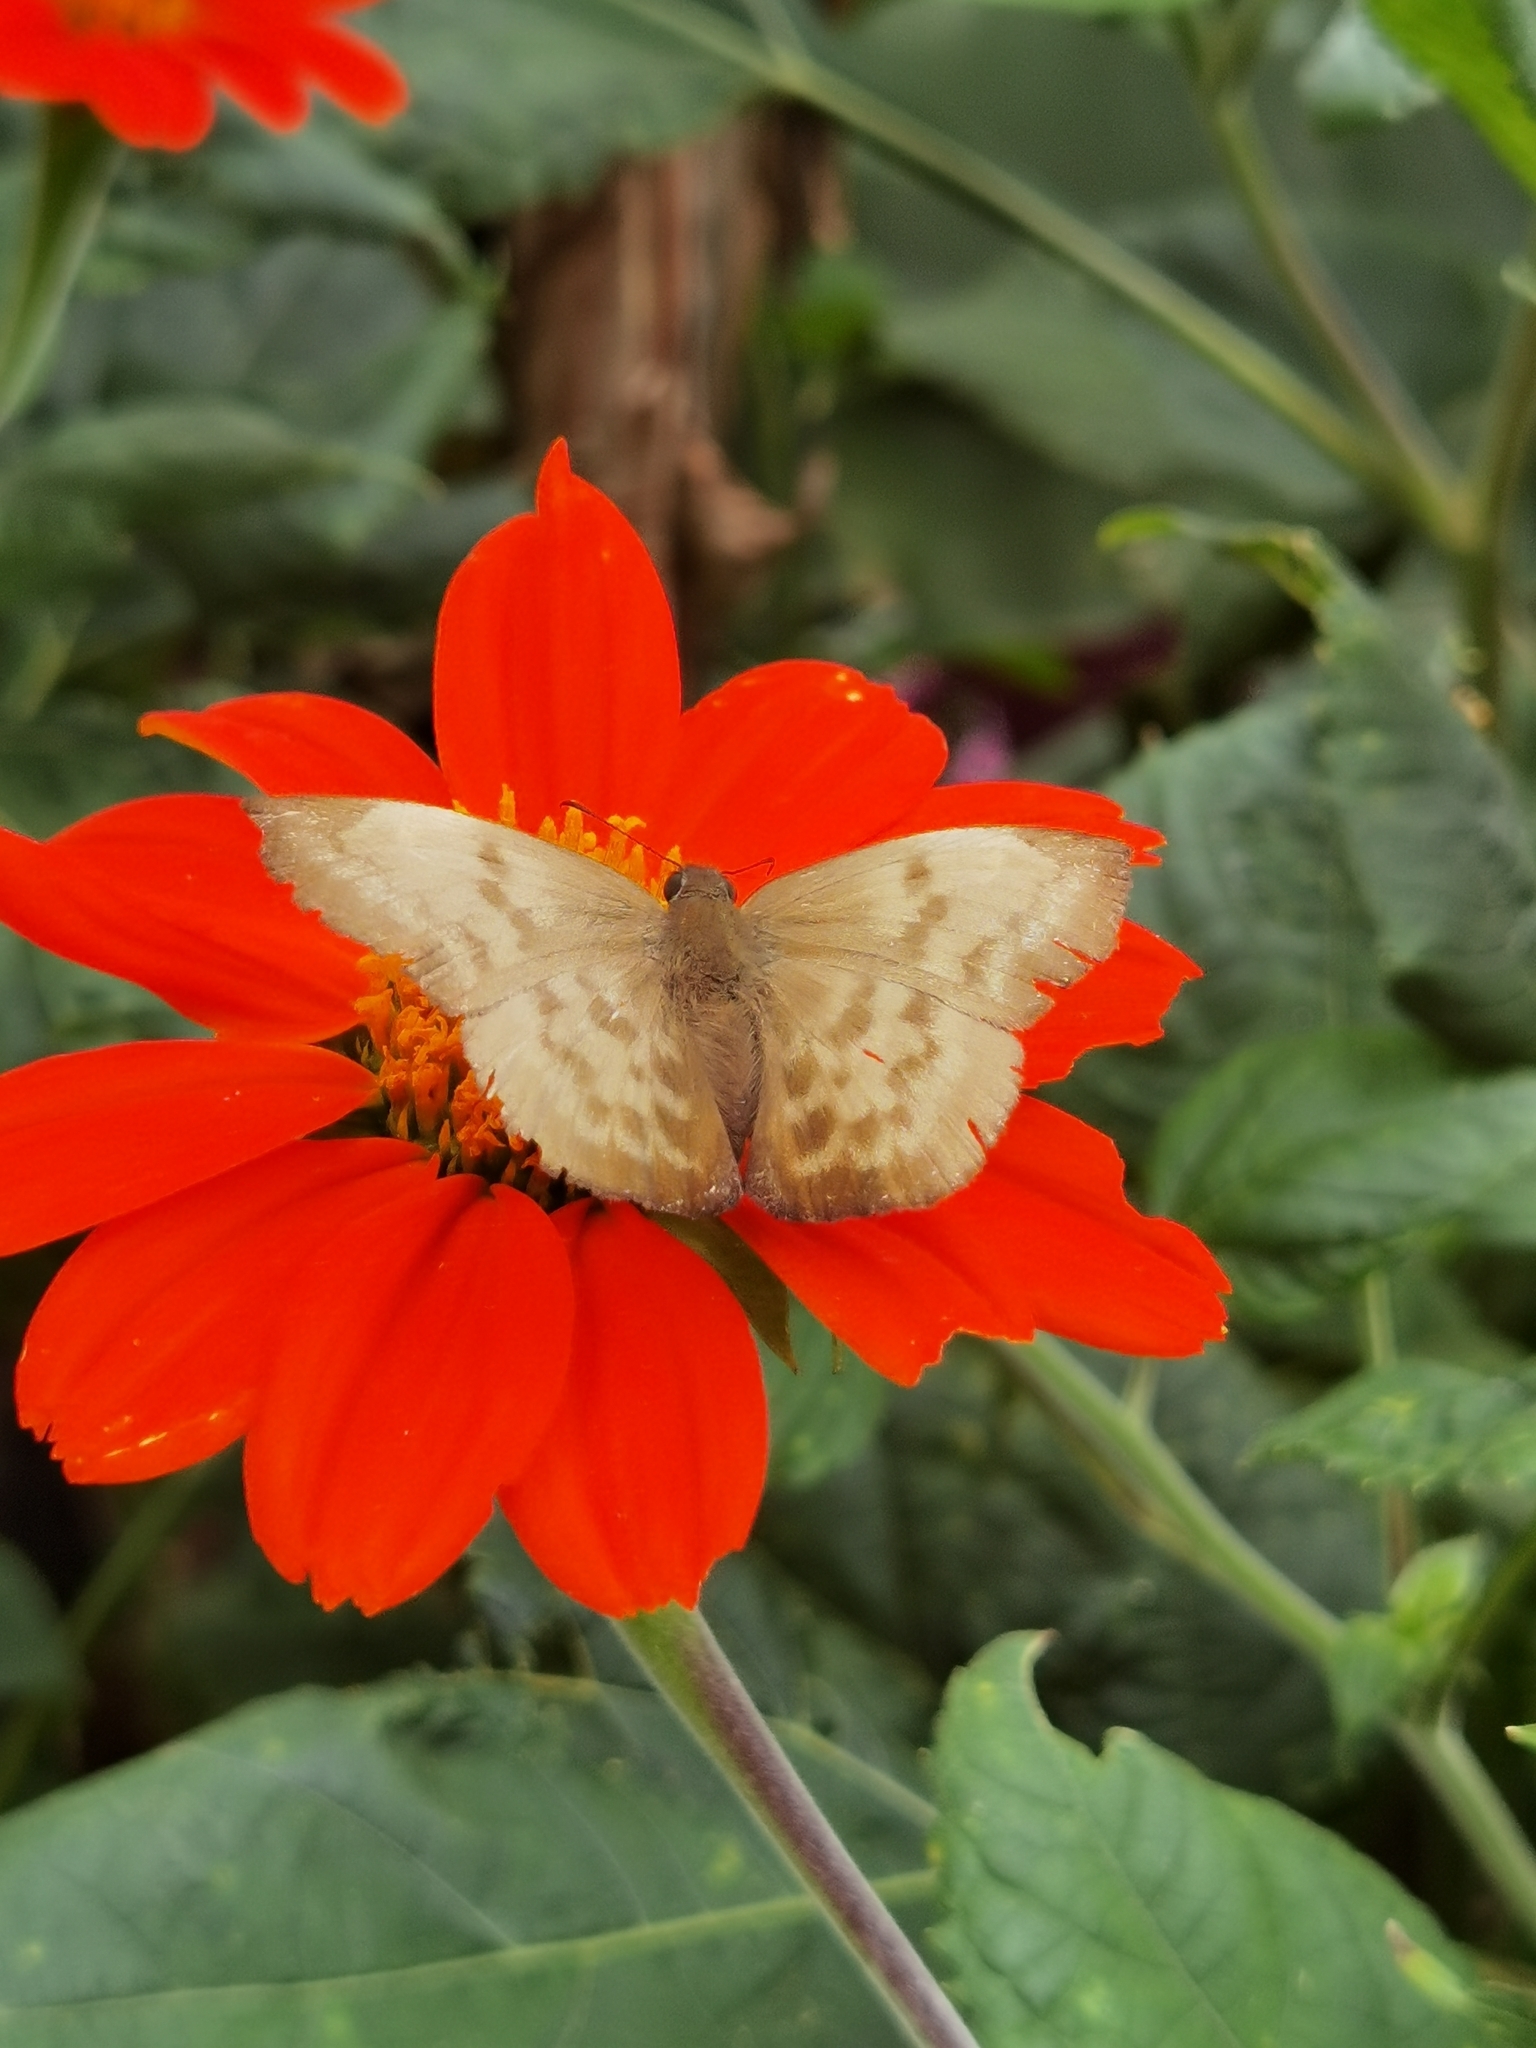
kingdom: Animalia
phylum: Arthropoda
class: Insecta
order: Lepidoptera
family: Hesperiidae
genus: Achlyodes
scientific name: Achlyodes pallida
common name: Pale sicklewing
